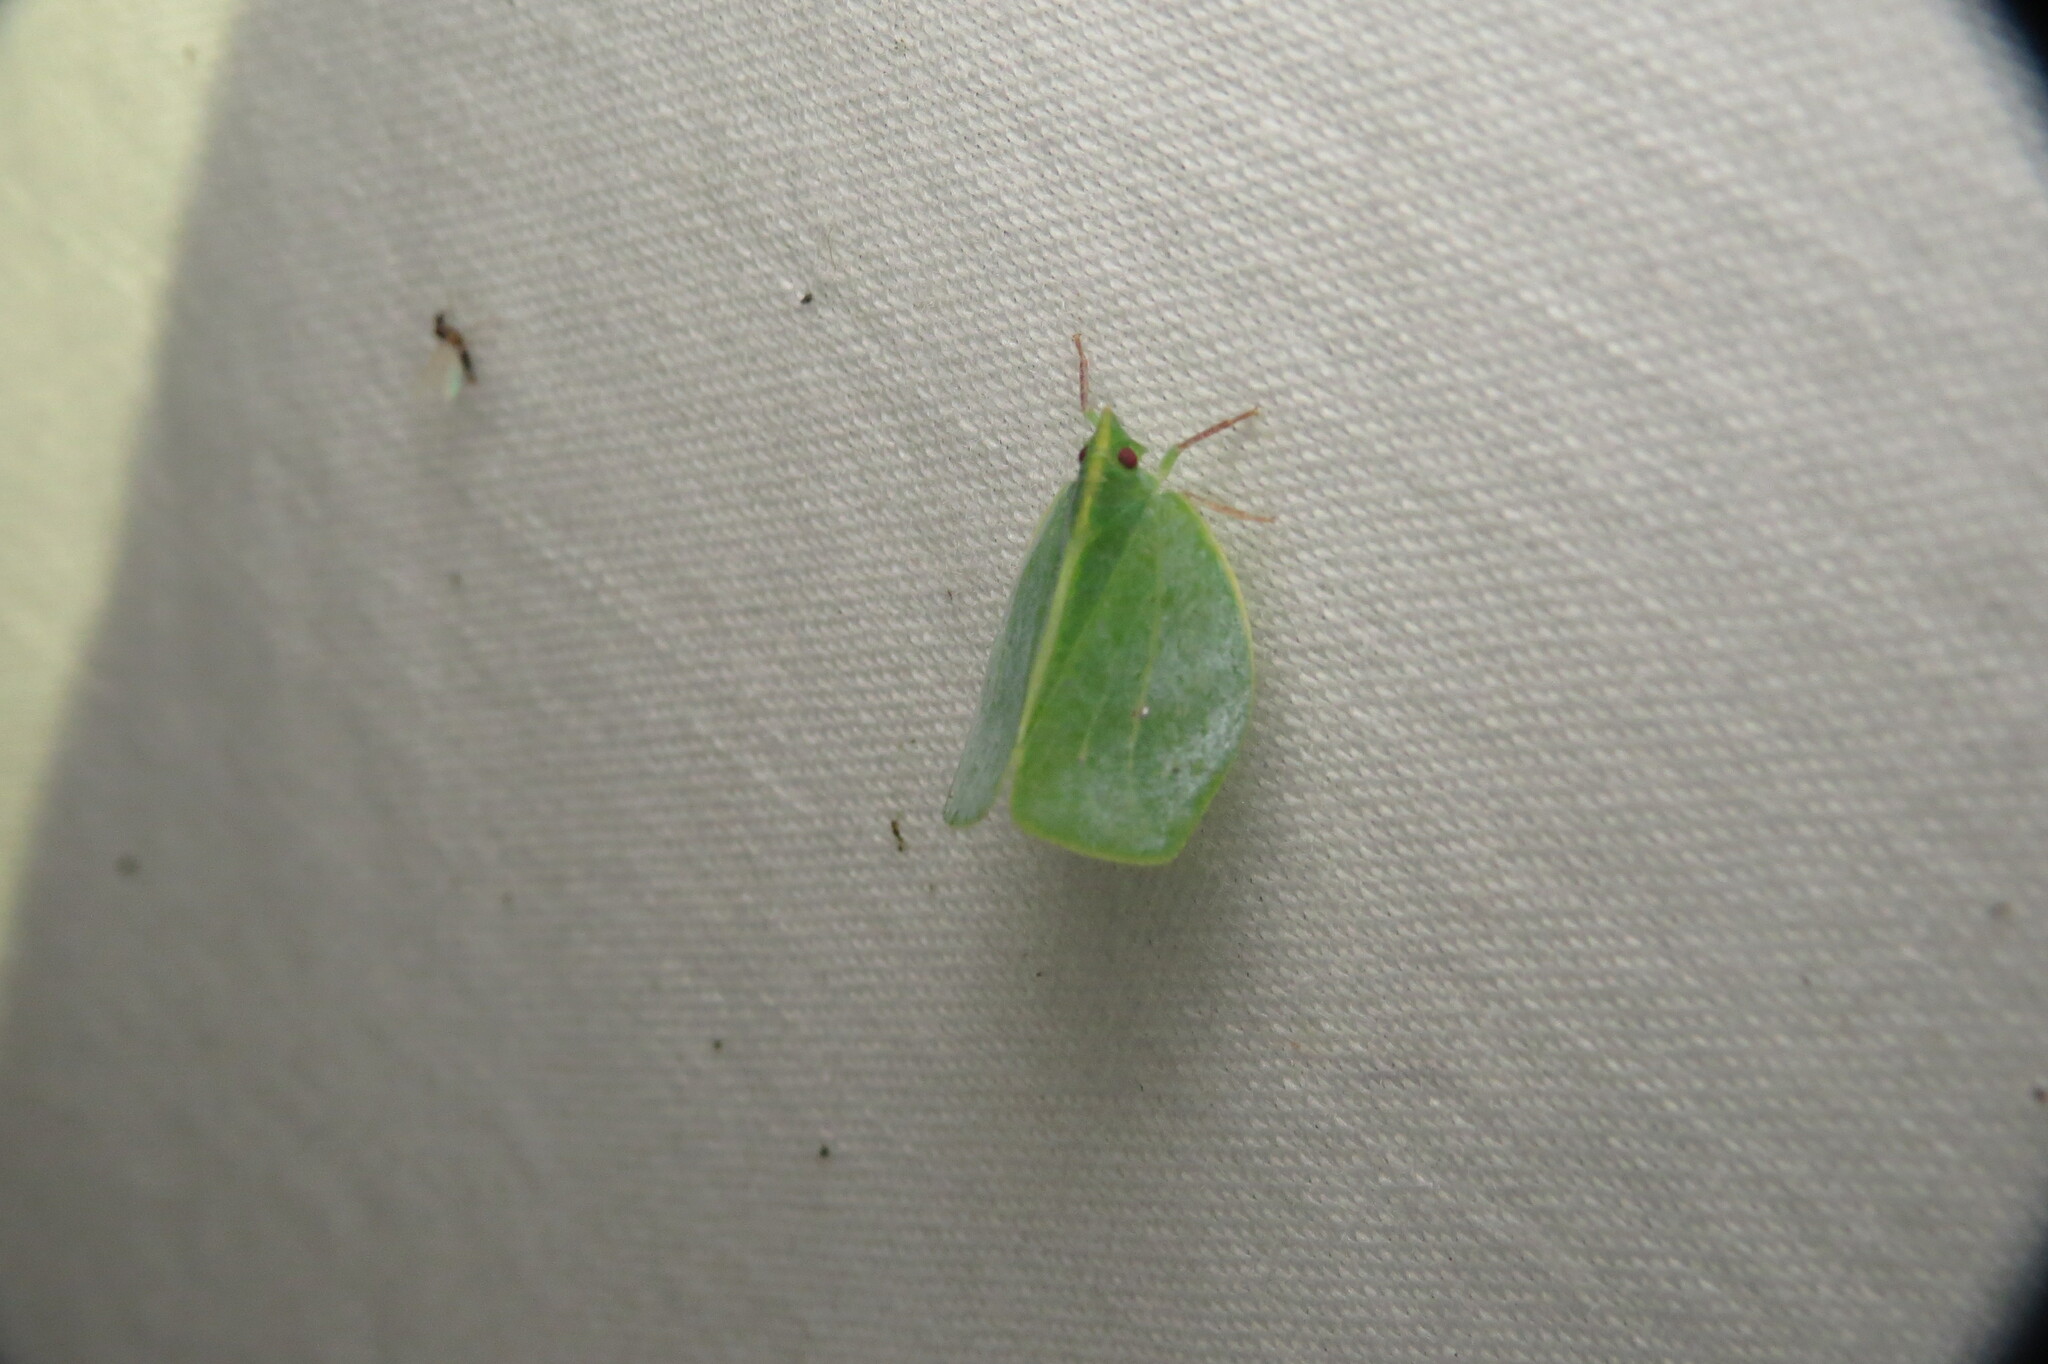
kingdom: Animalia
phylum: Arthropoda
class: Insecta
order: Hemiptera
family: Acanaloniidae
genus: Chlorochara
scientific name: Chlorochara vivida
